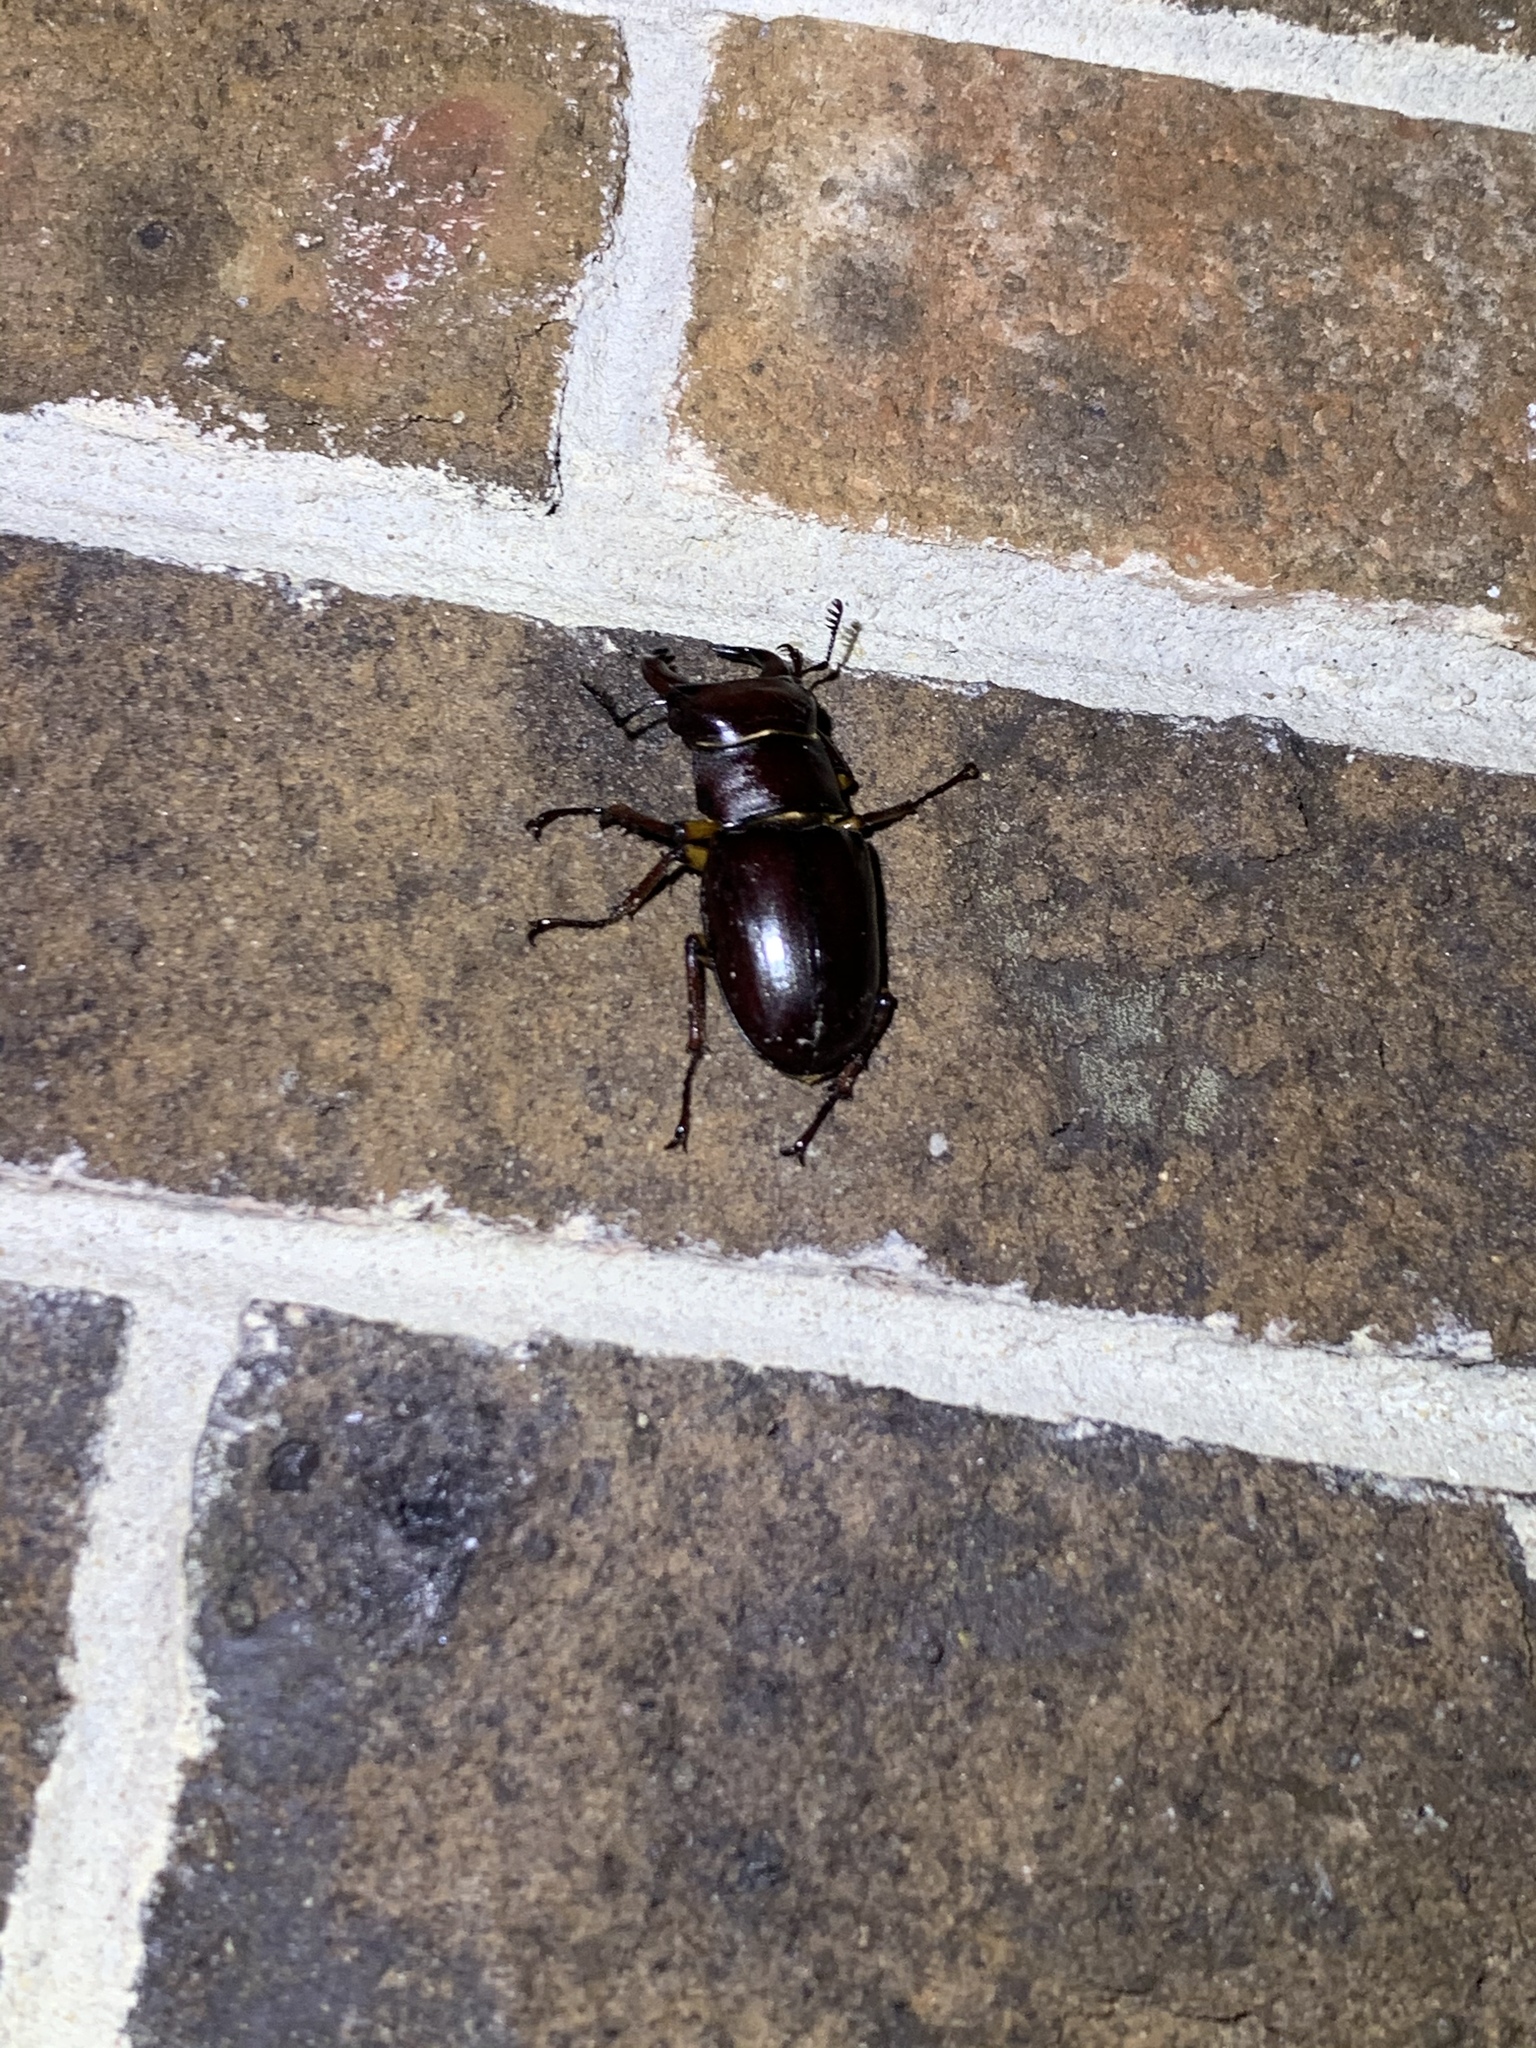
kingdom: Animalia
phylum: Arthropoda
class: Insecta
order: Coleoptera
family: Lucanidae
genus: Lucanus
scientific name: Lucanus capreolus
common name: Stag beetle
